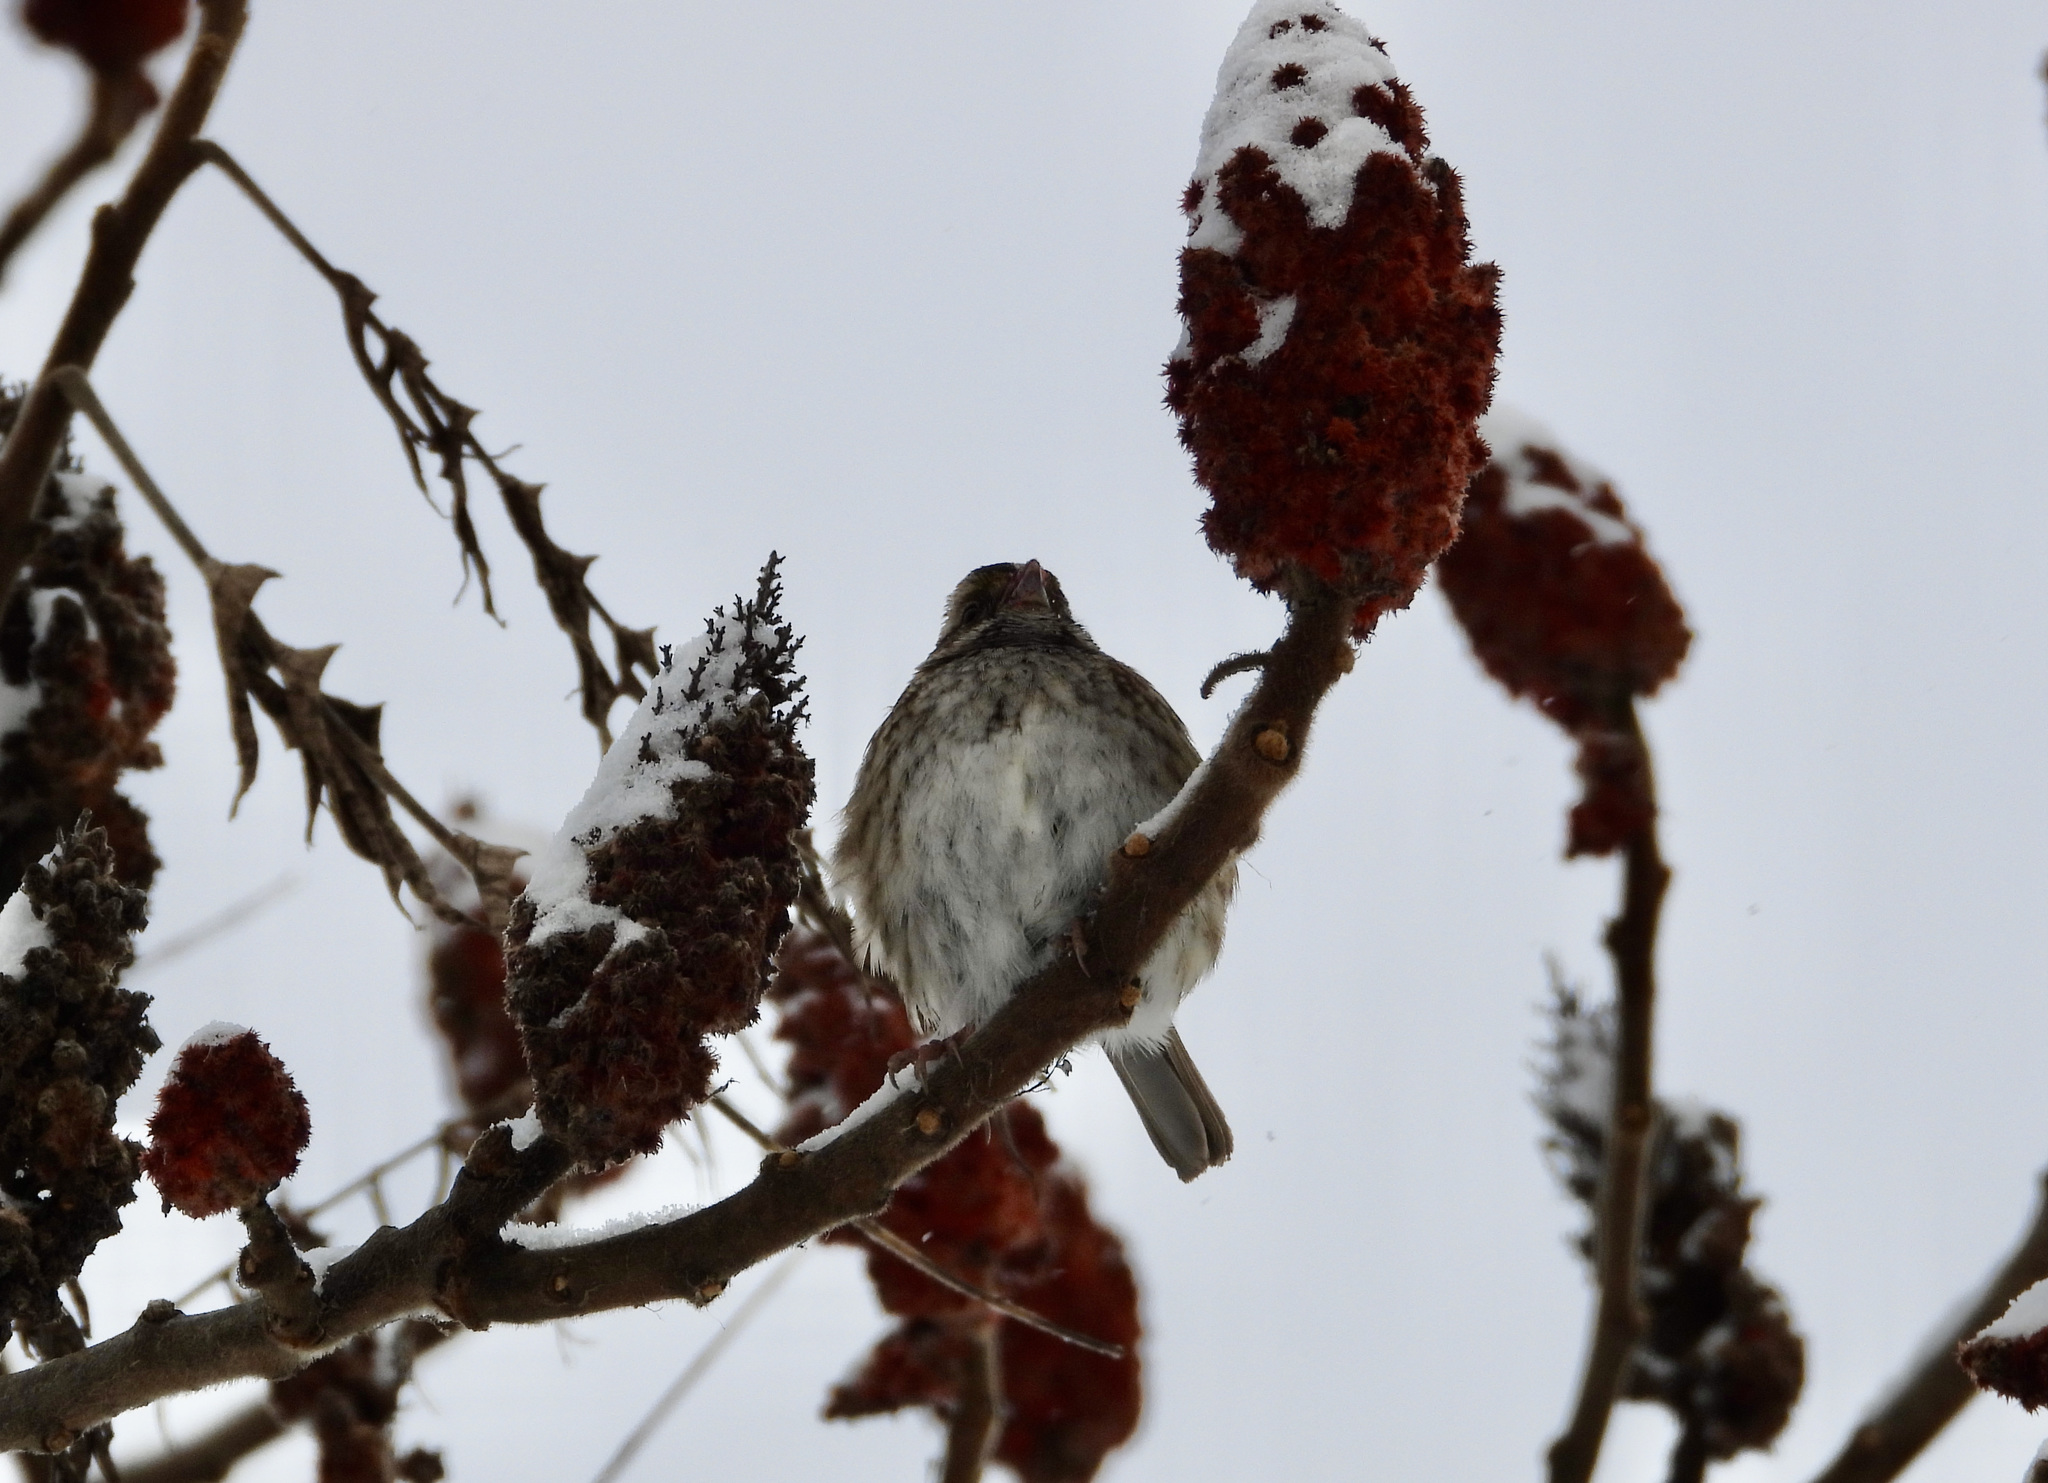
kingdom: Animalia
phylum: Chordata
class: Aves
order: Passeriformes
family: Fringillidae
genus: Acanthis
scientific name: Acanthis flammea
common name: Common redpoll
